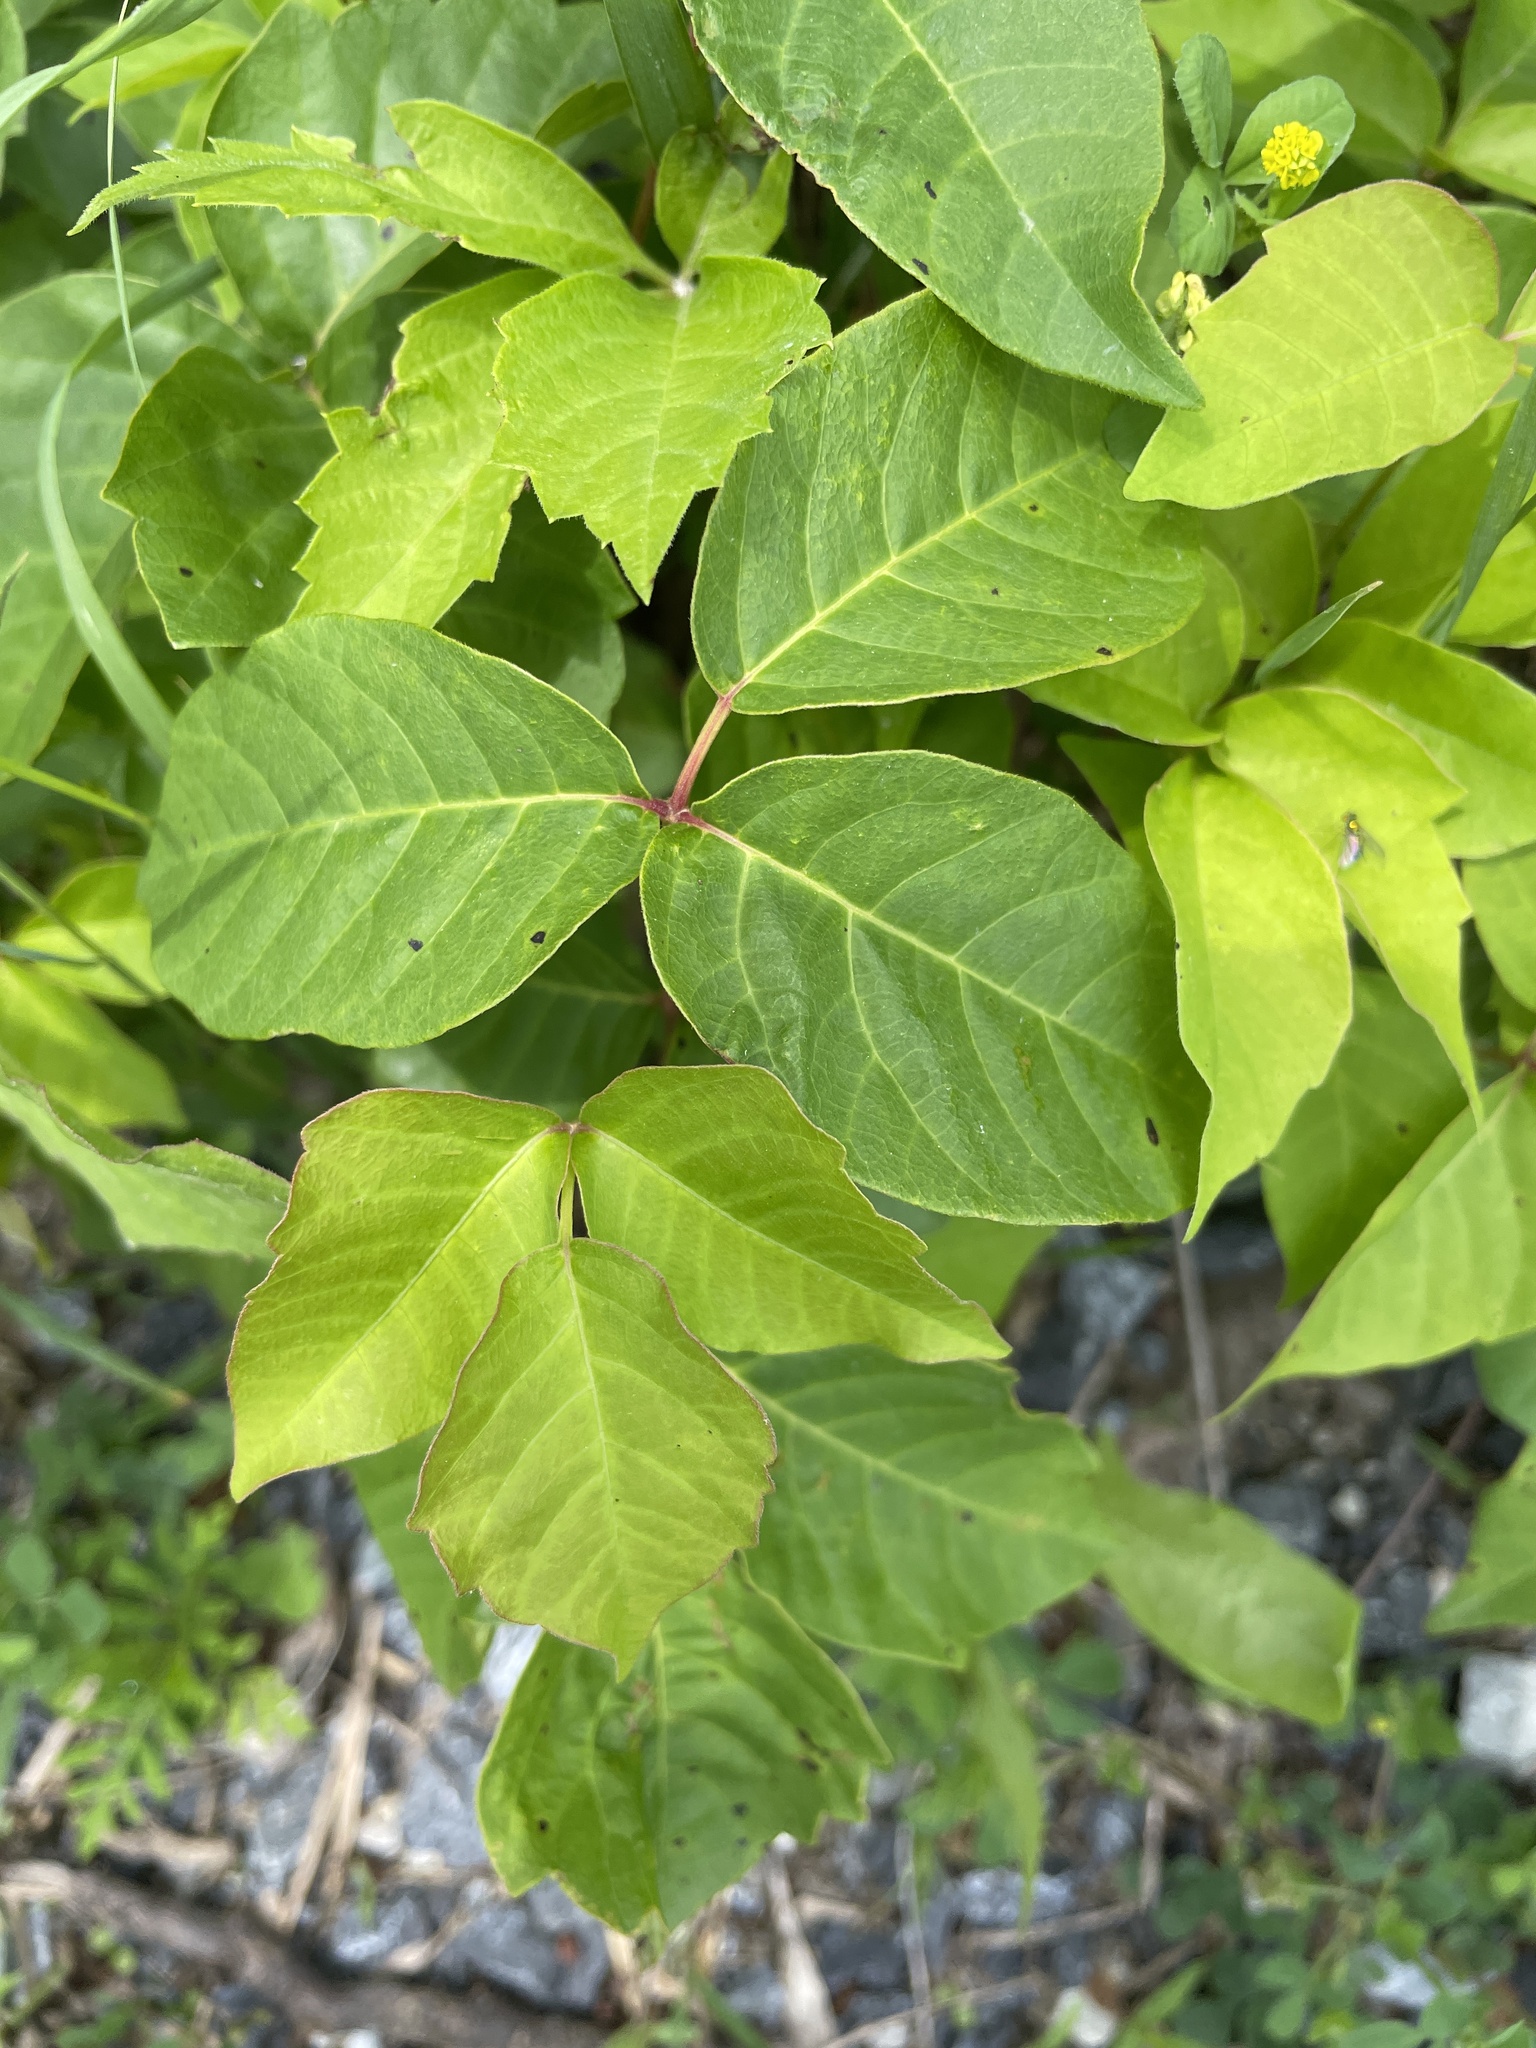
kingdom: Plantae
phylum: Tracheophyta
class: Magnoliopsida
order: Sapindales
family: Anacardiaceae
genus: Toxicodendron
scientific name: Toxicodendron radicans
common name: Poison ivy
